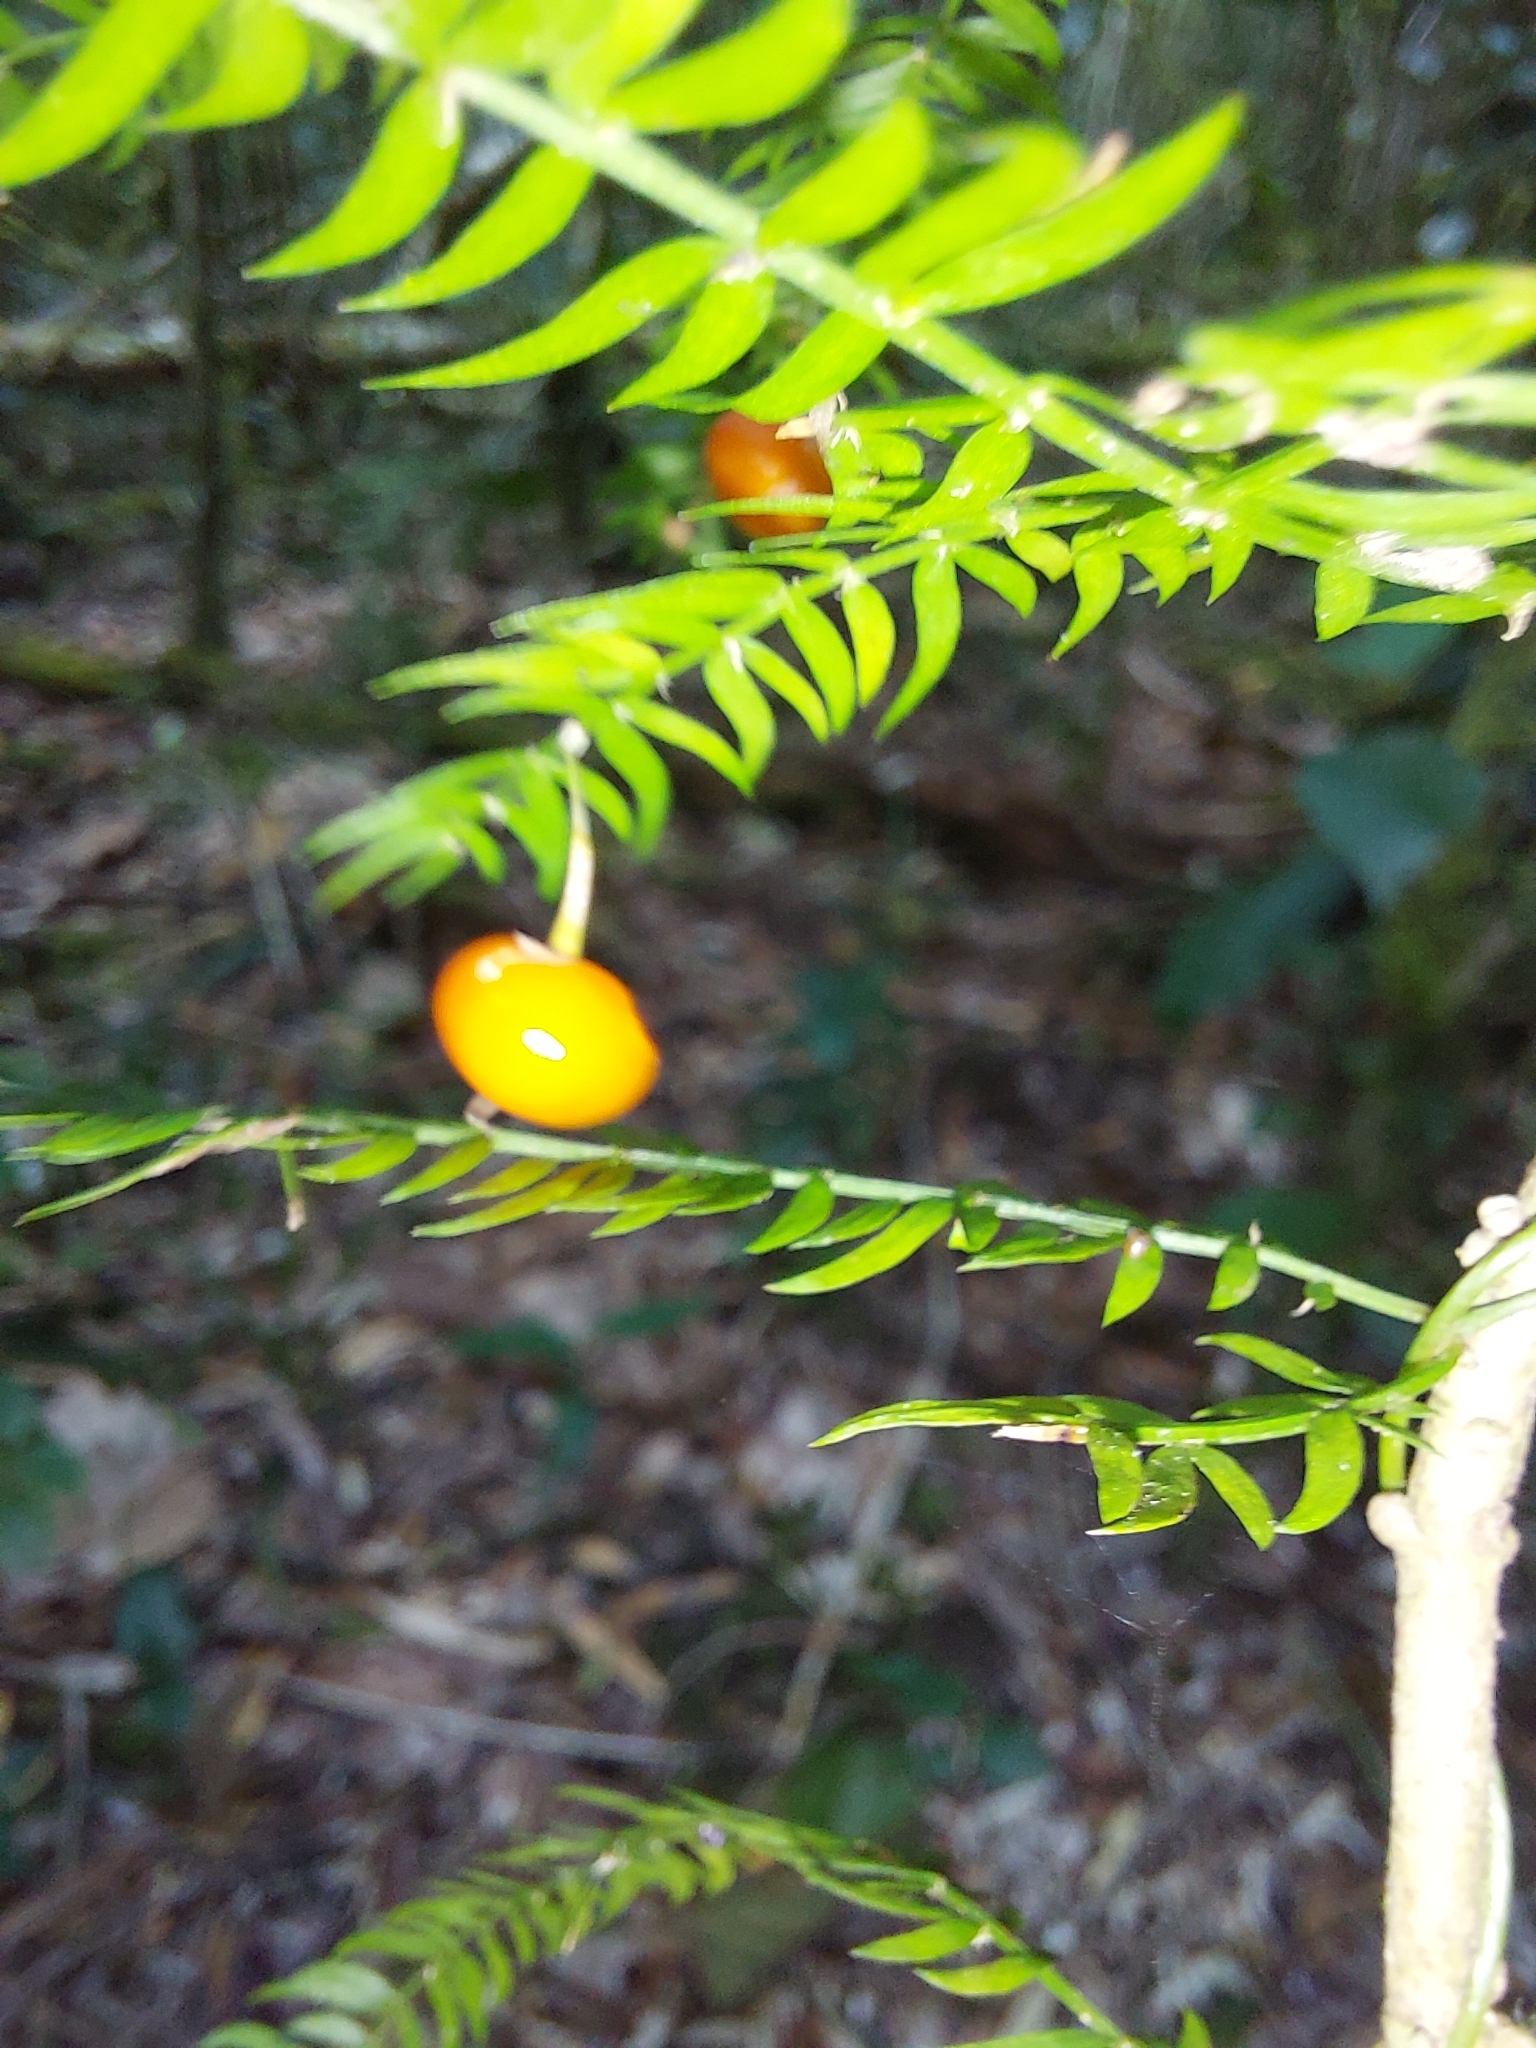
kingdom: Plantae
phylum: Tracheophyta
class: Liliopsida
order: Asparagales
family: Asparagaceae
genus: Asparagus
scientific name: Asparagus scandens
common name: Asparagus-fern
